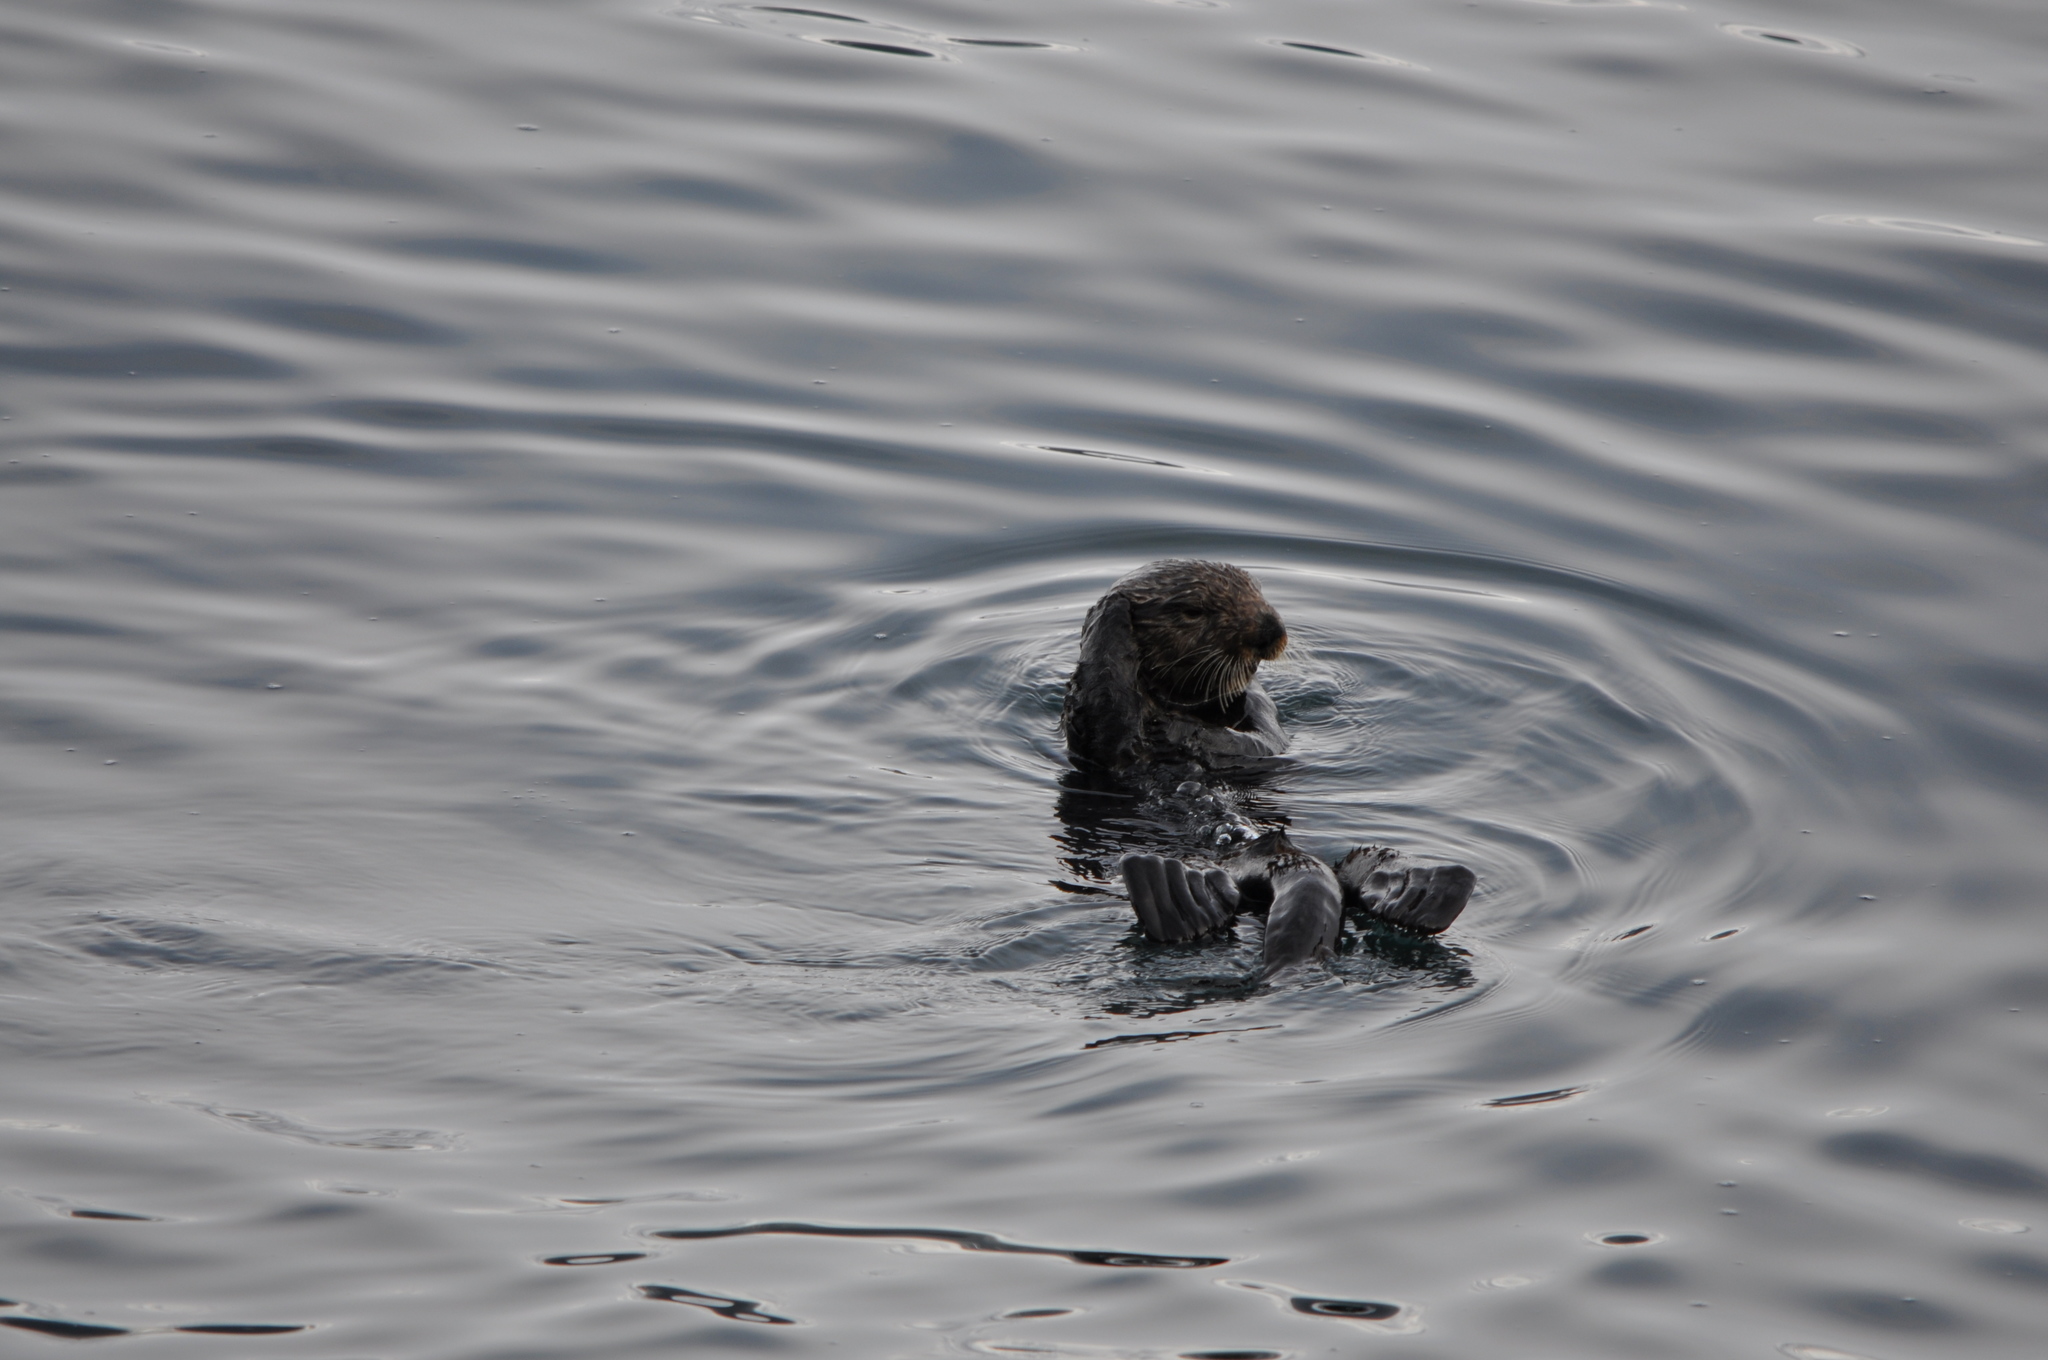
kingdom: Animalia
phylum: Chordata
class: Mammalia
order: Carnivora
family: Mustelidae
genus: Enhydra
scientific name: Enhydra lutris
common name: Sea otter
